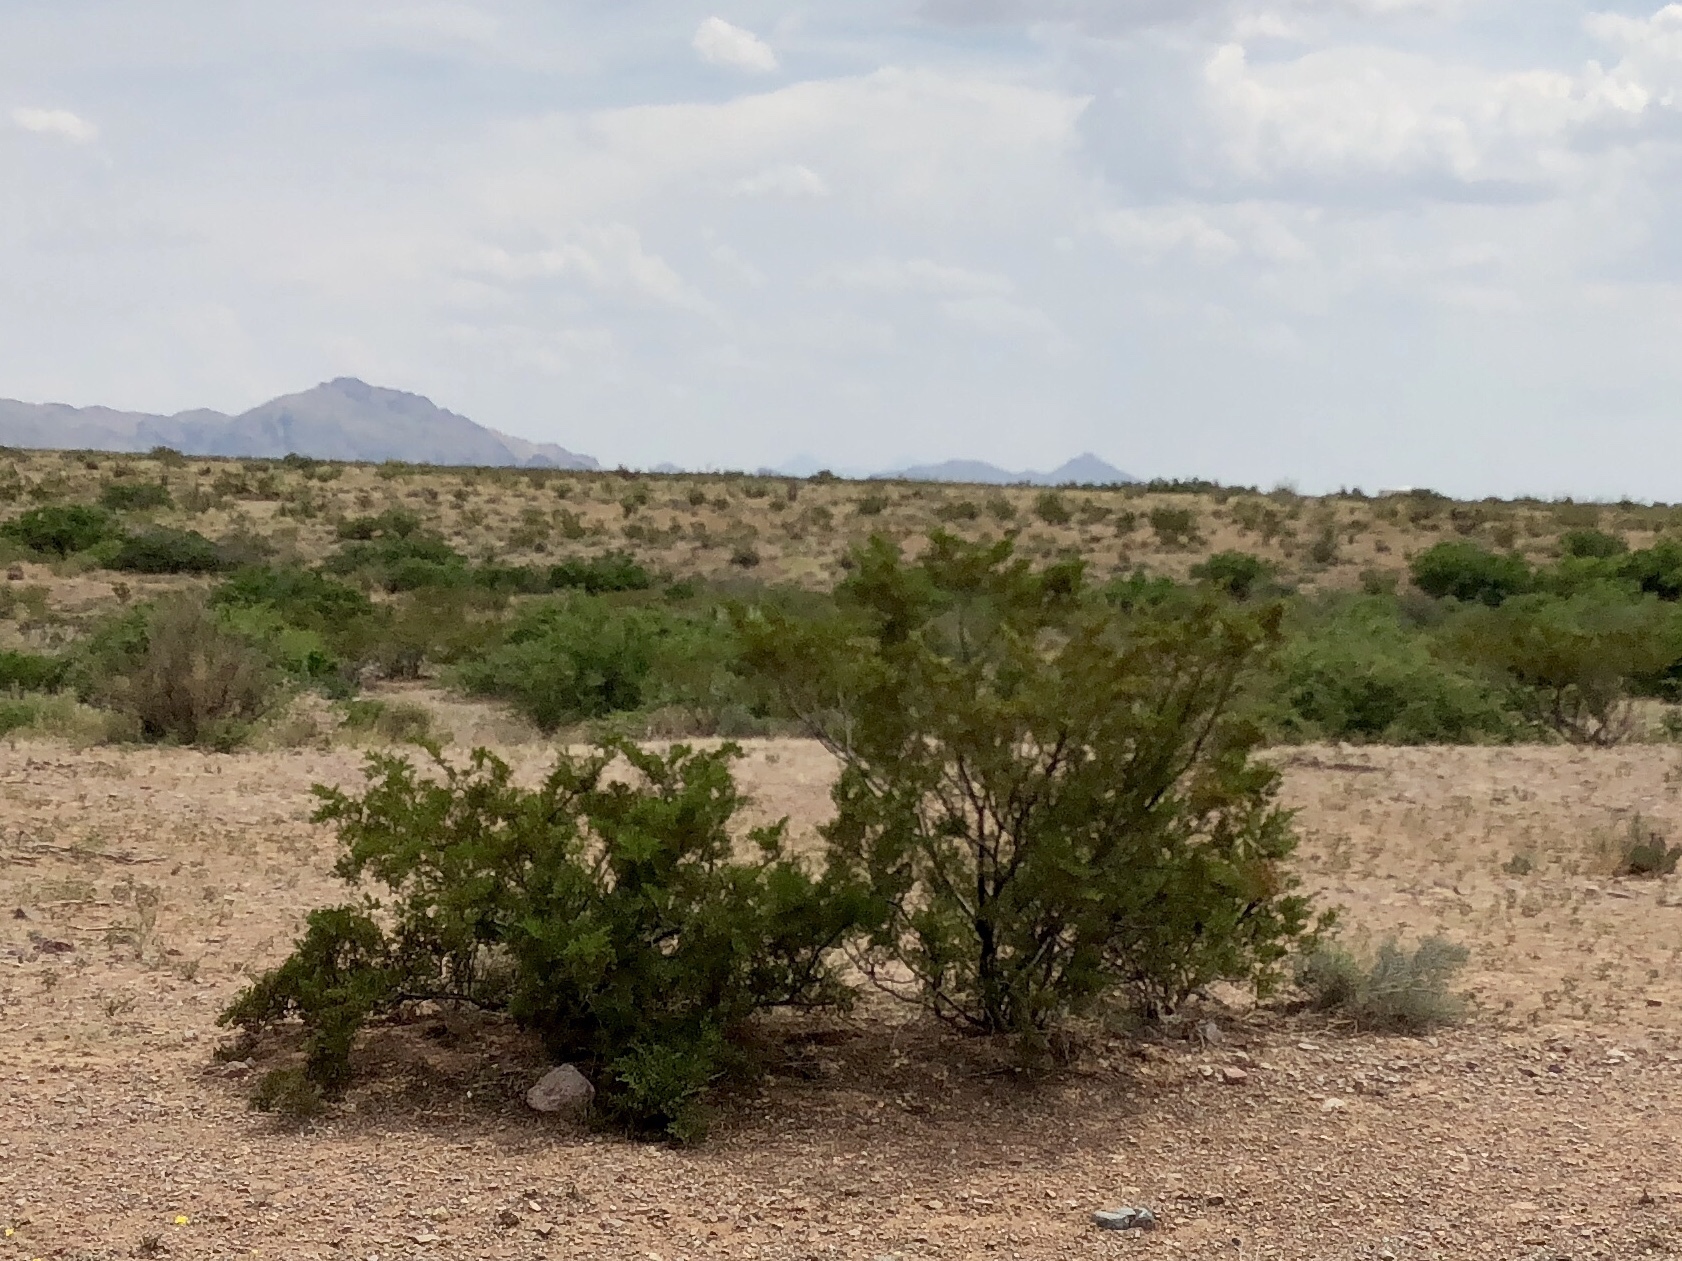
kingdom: Plantae
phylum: Tracheophyta
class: Magnoliopsida
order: Zygophyllales
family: Zygophyllaceae
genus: Larrea
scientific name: Larrea tridentata
